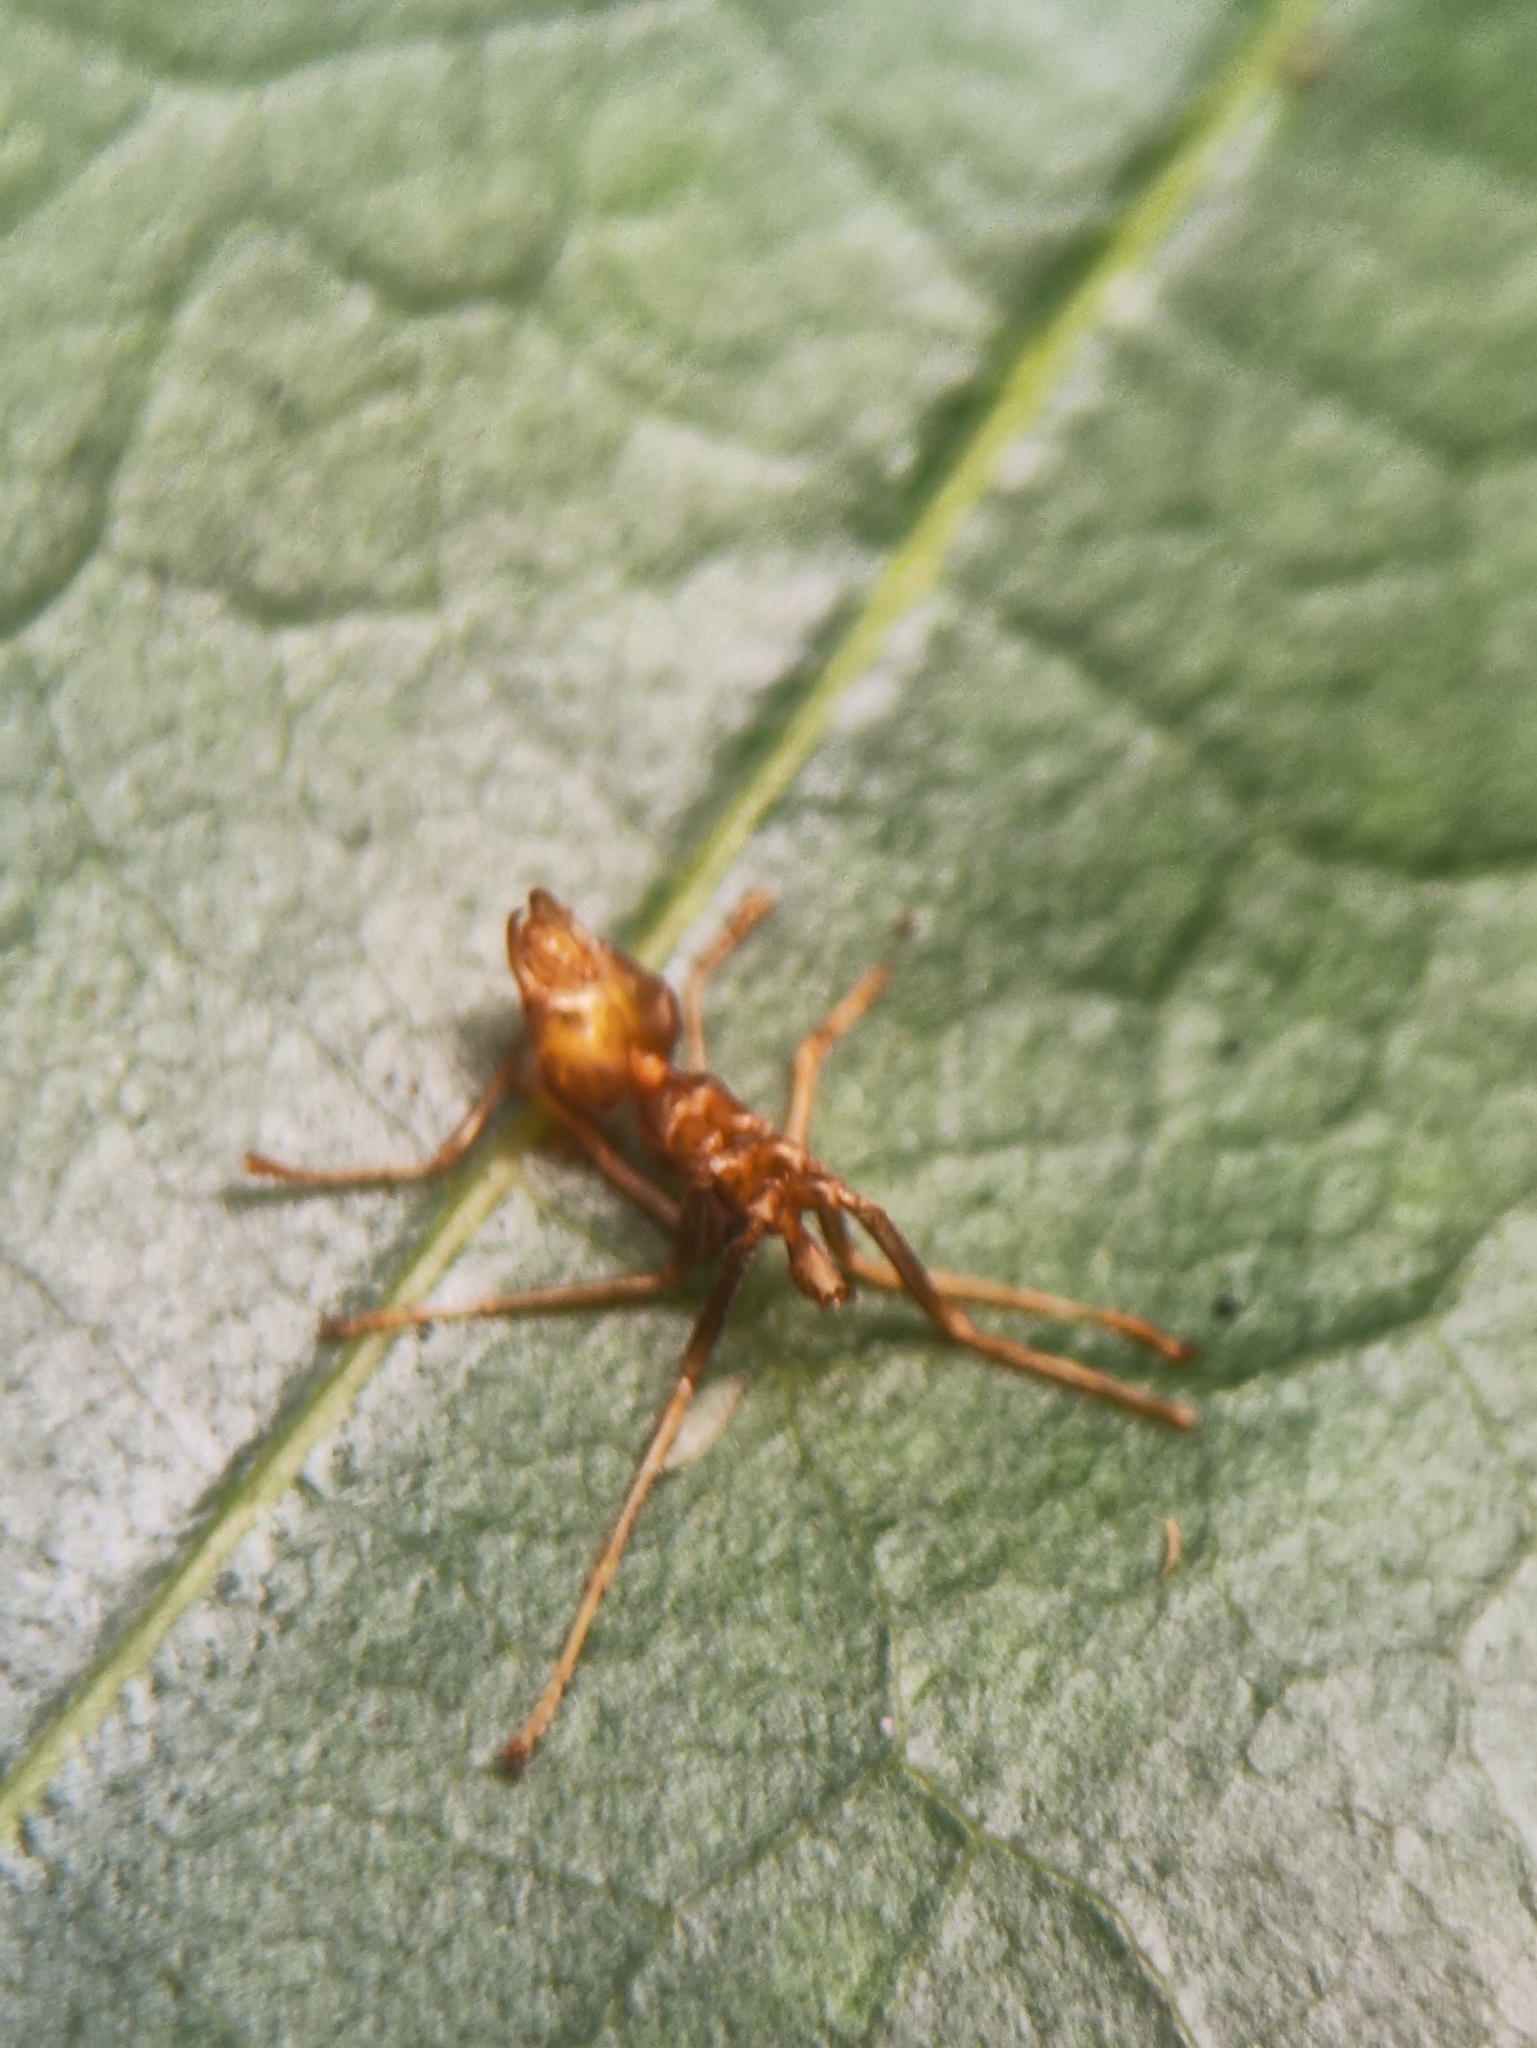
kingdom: Animalia
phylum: Arthropoda
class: Insecta
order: Hymenoptera
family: Formicidae
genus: Oecophylla
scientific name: Oecophylla smaragdina
